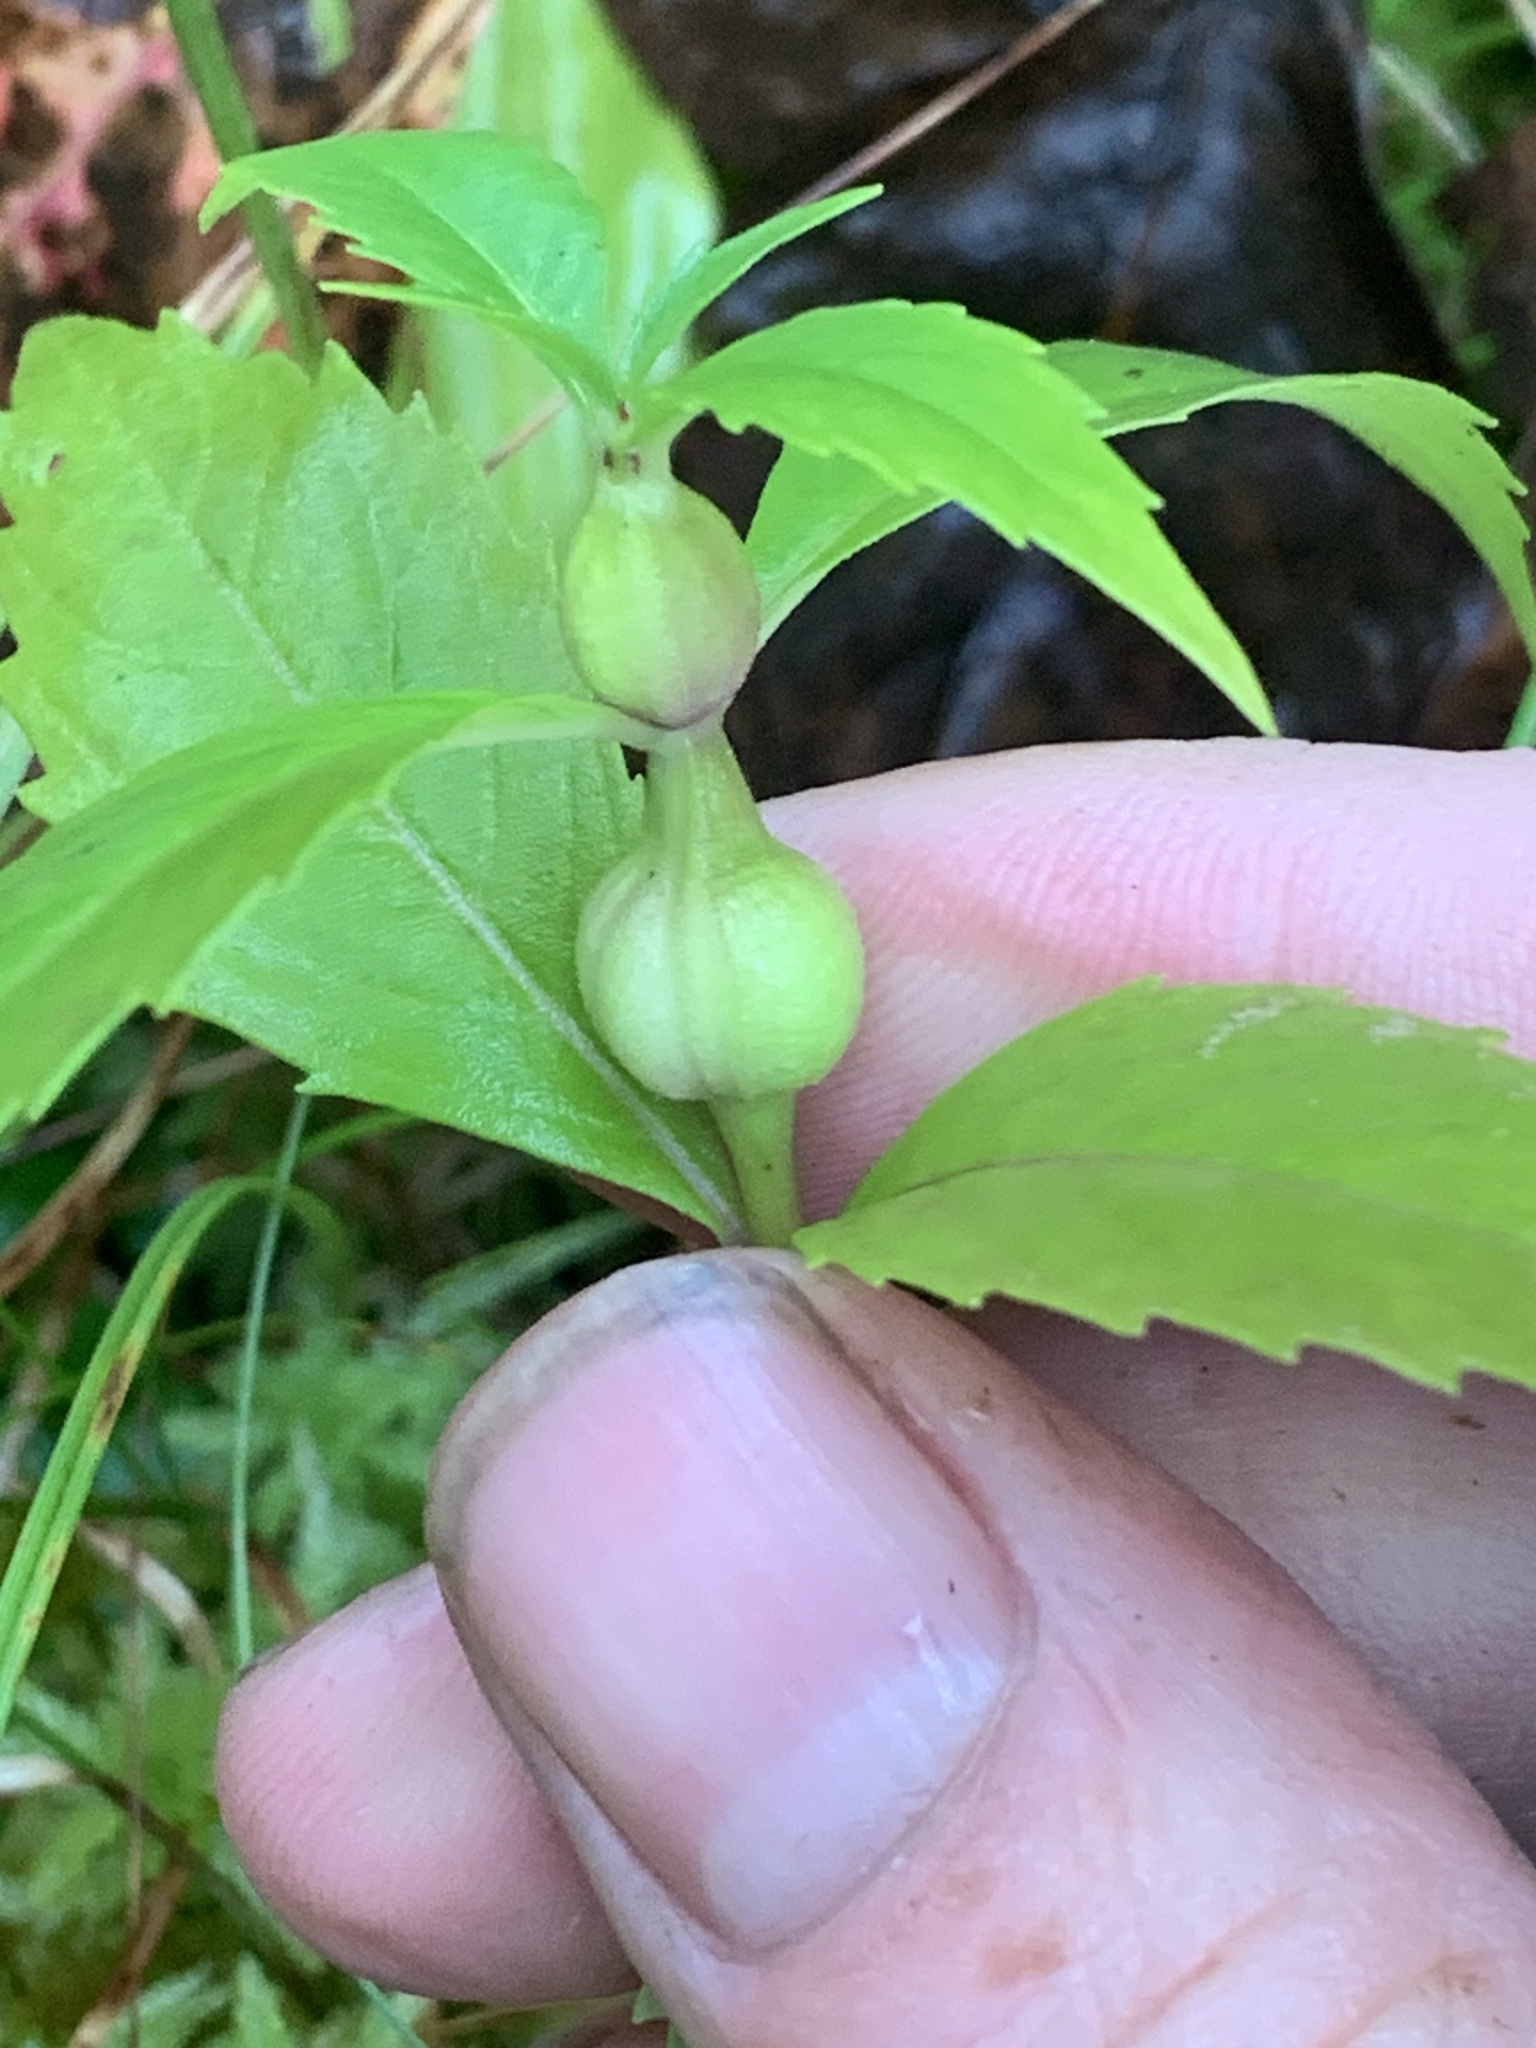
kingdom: Animalia
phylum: Arthropoda
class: Insecta
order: Diptera
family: Cecidomyiidae
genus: Neolasioptera
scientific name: Neolasioptera lycopi
